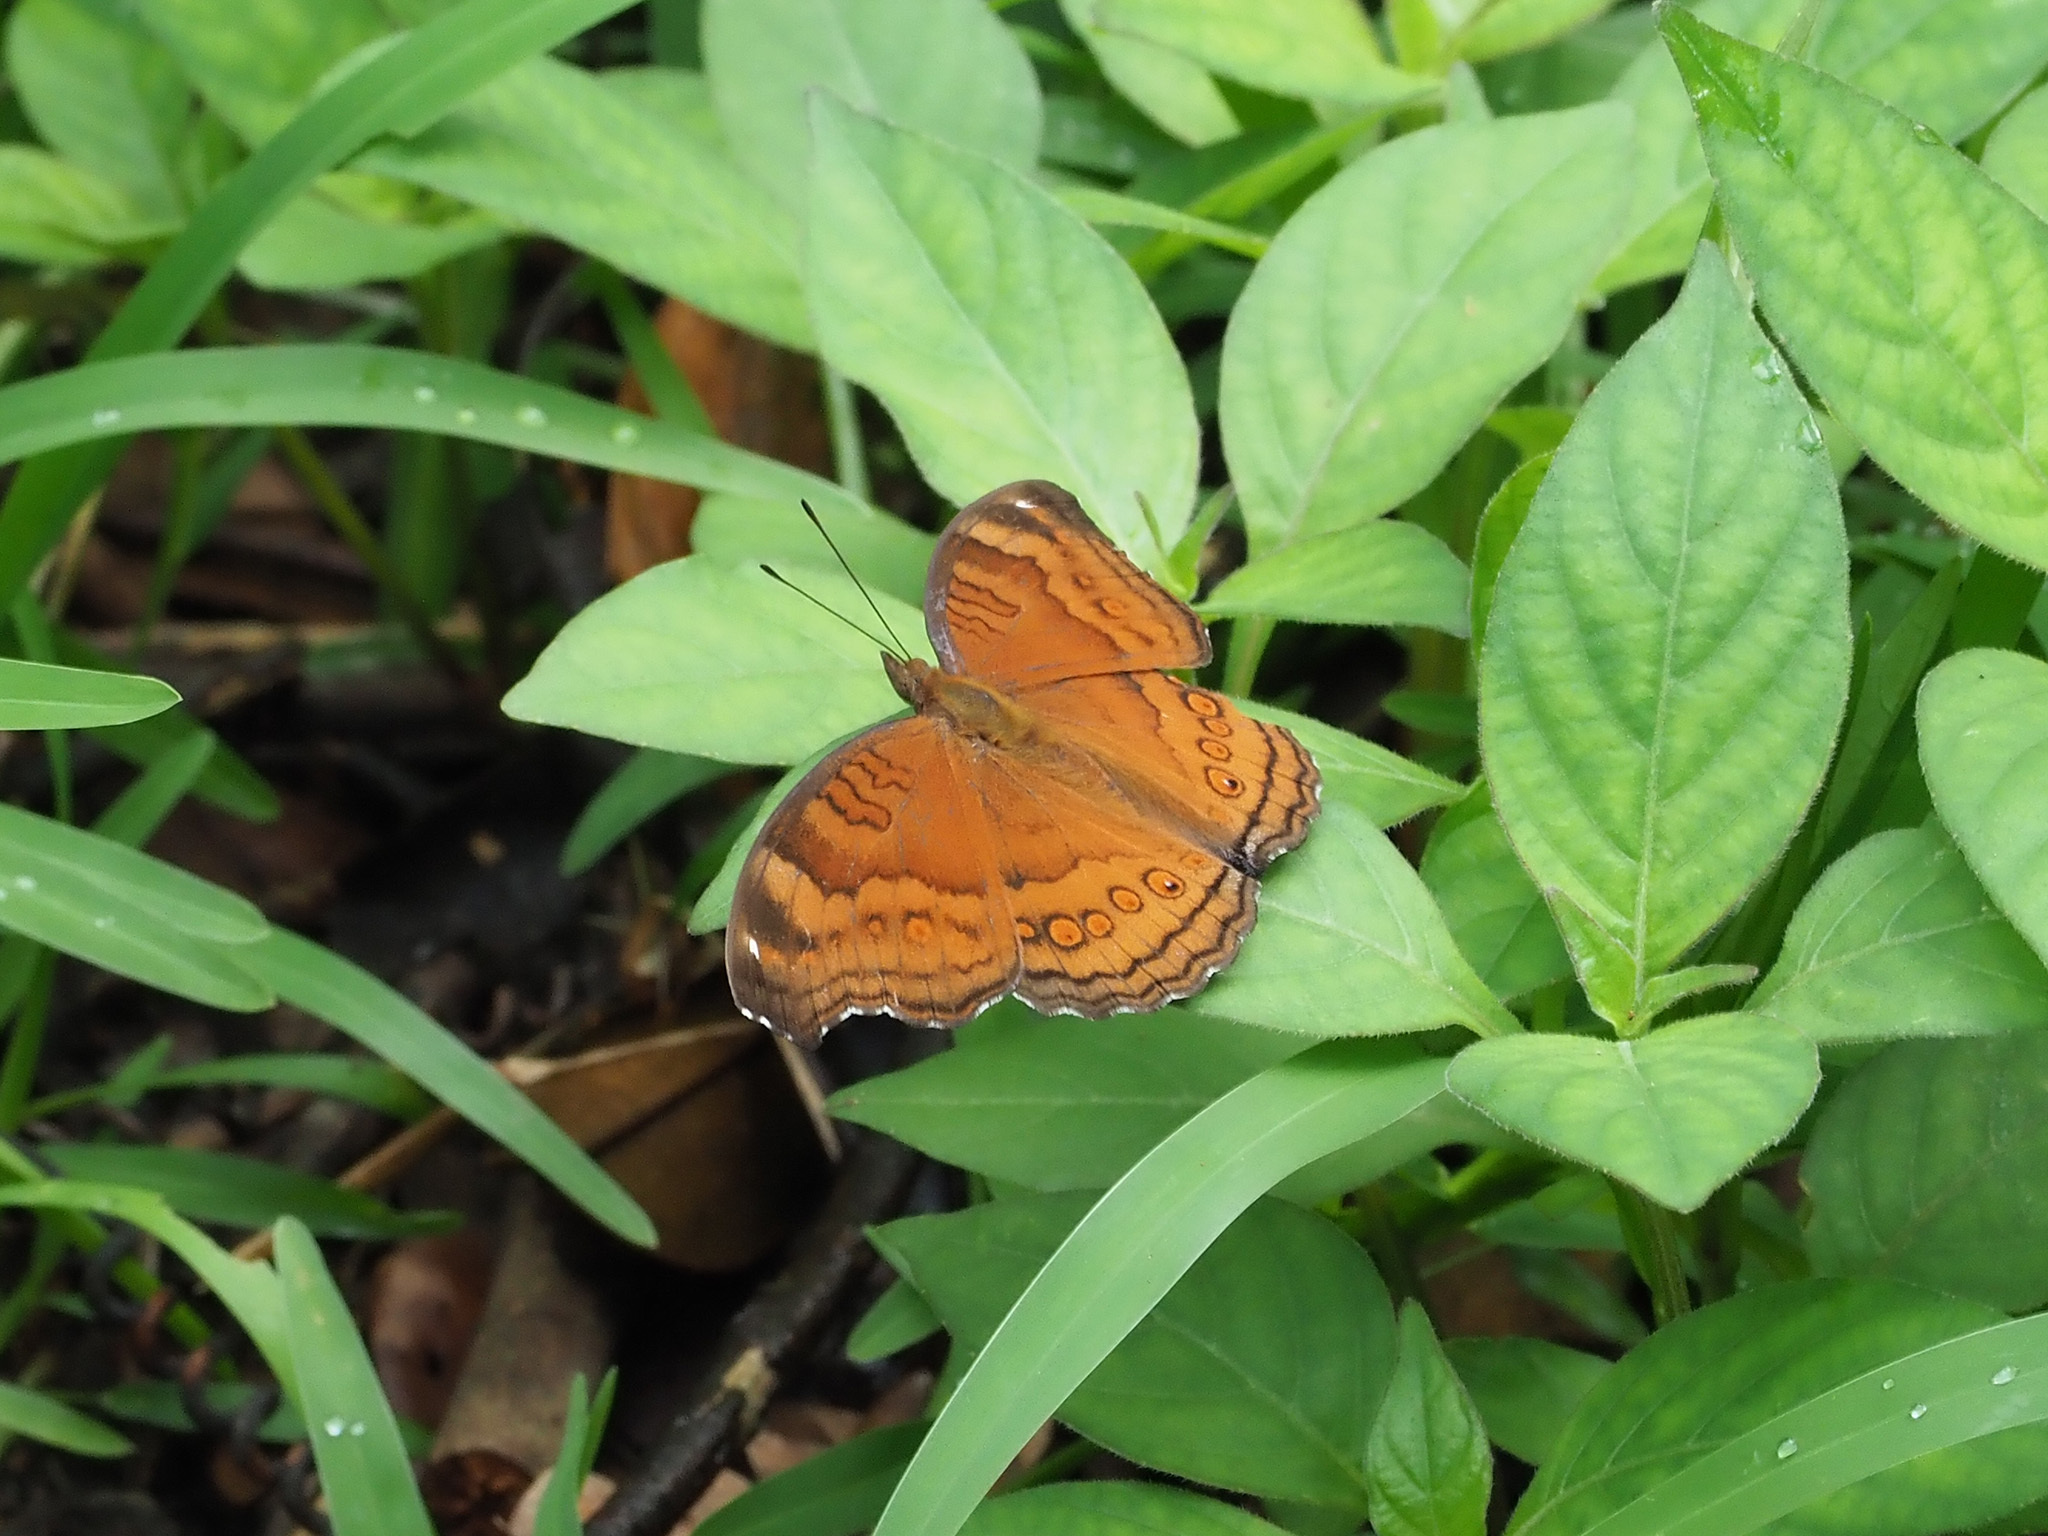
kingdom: Animalia
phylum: Arthropoda
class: Insecta
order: Lepidoptera
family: Nymphalidae
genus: Junonia
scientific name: Junonia hedonia
